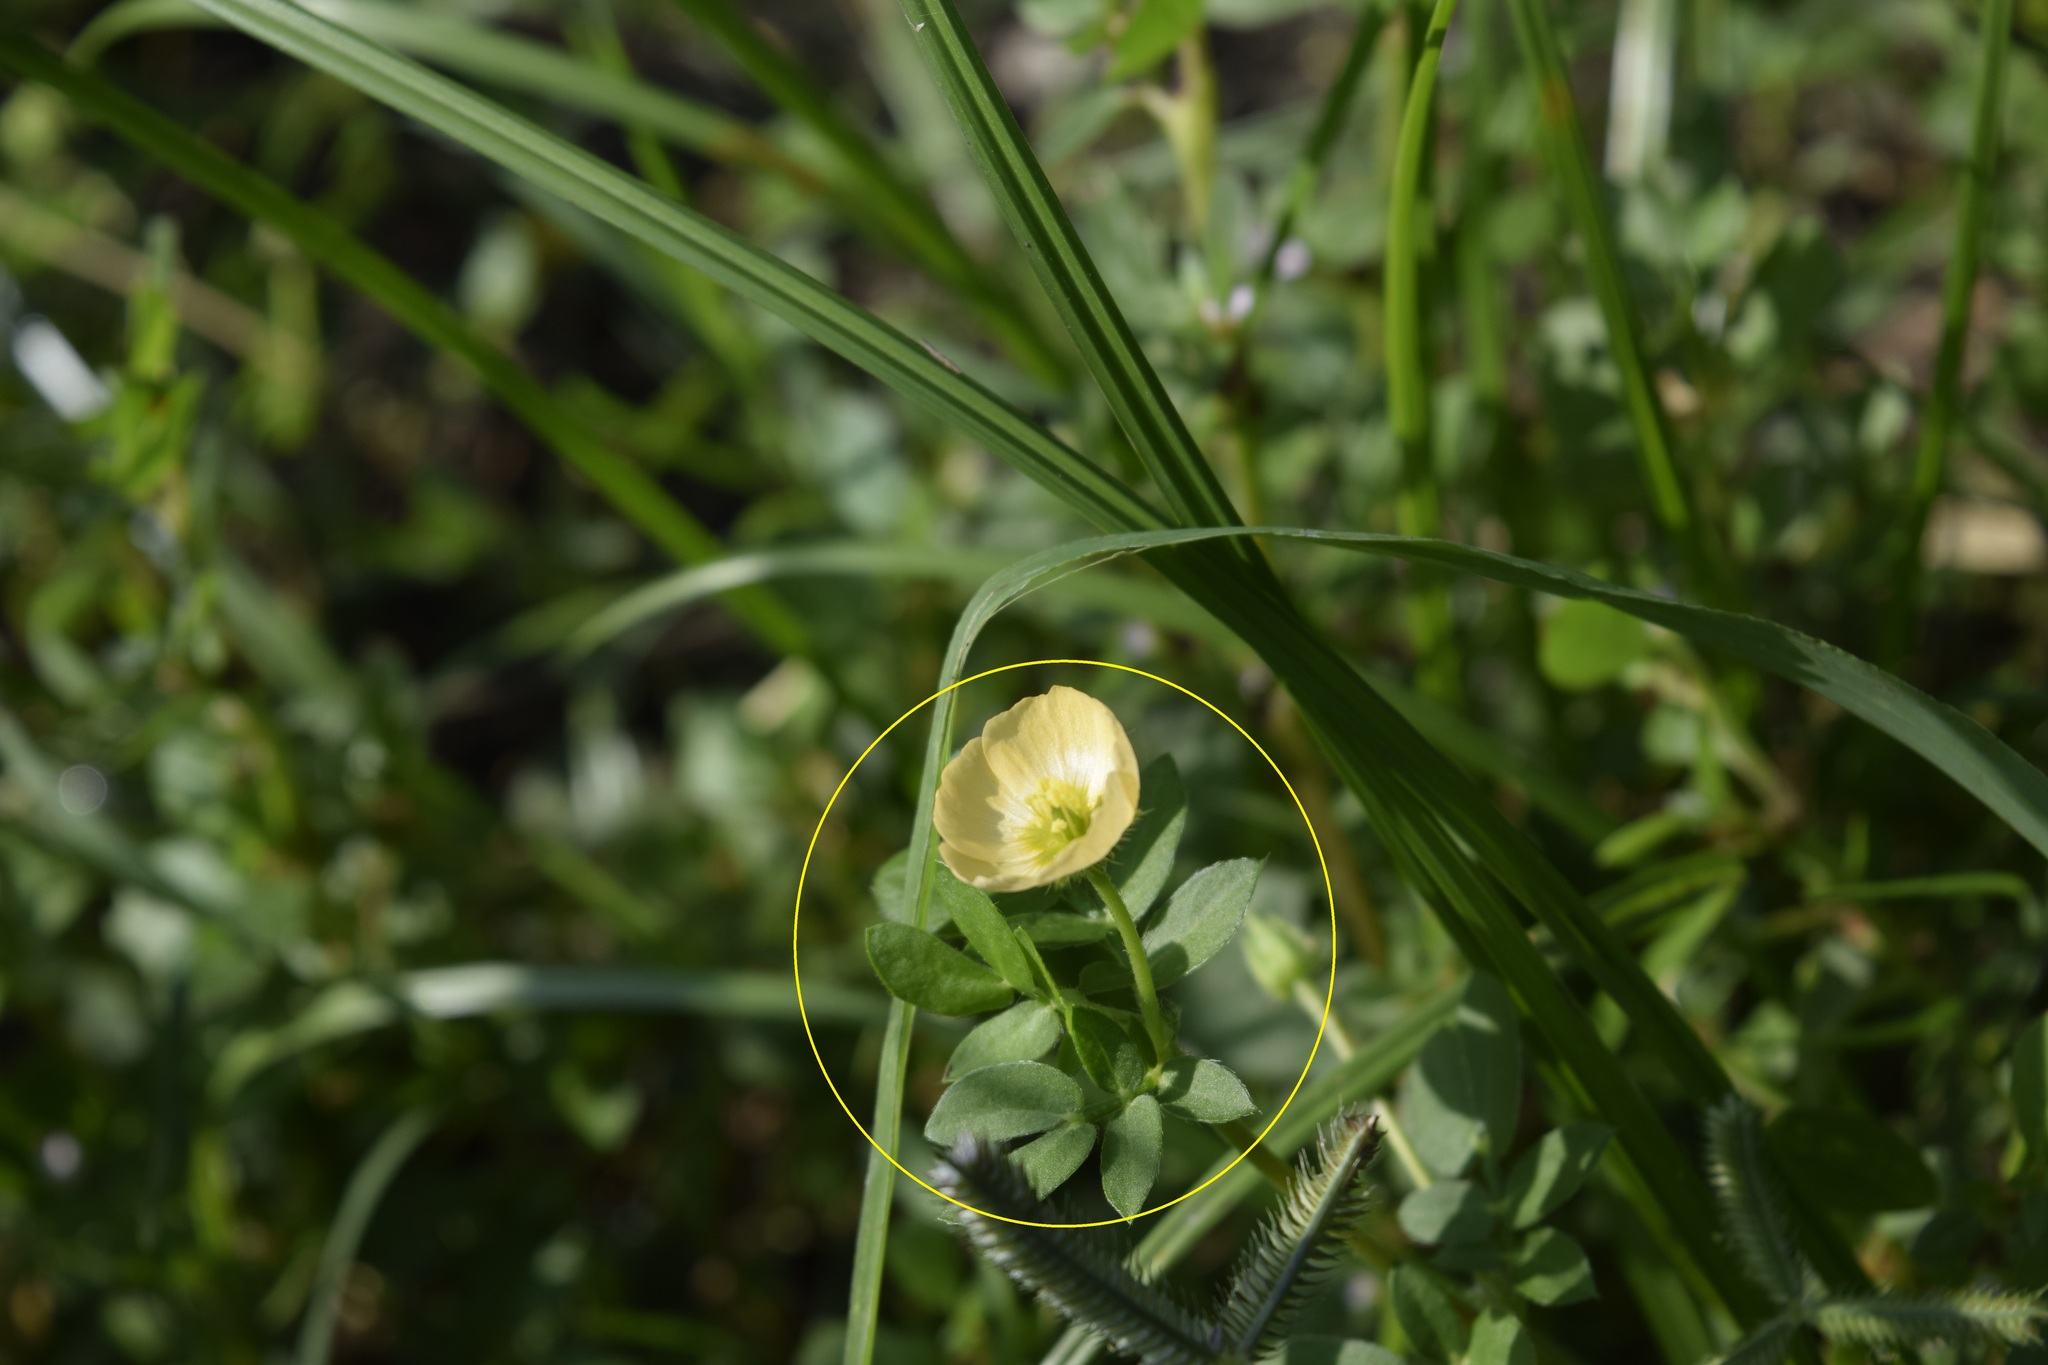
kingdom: Plantae
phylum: Tracheophyta
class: Magnoliopsida
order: Zygophyllales
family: Zygophyllaceae
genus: Kallstroemia
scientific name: Kallstroemia maxima
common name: Big caltropa
